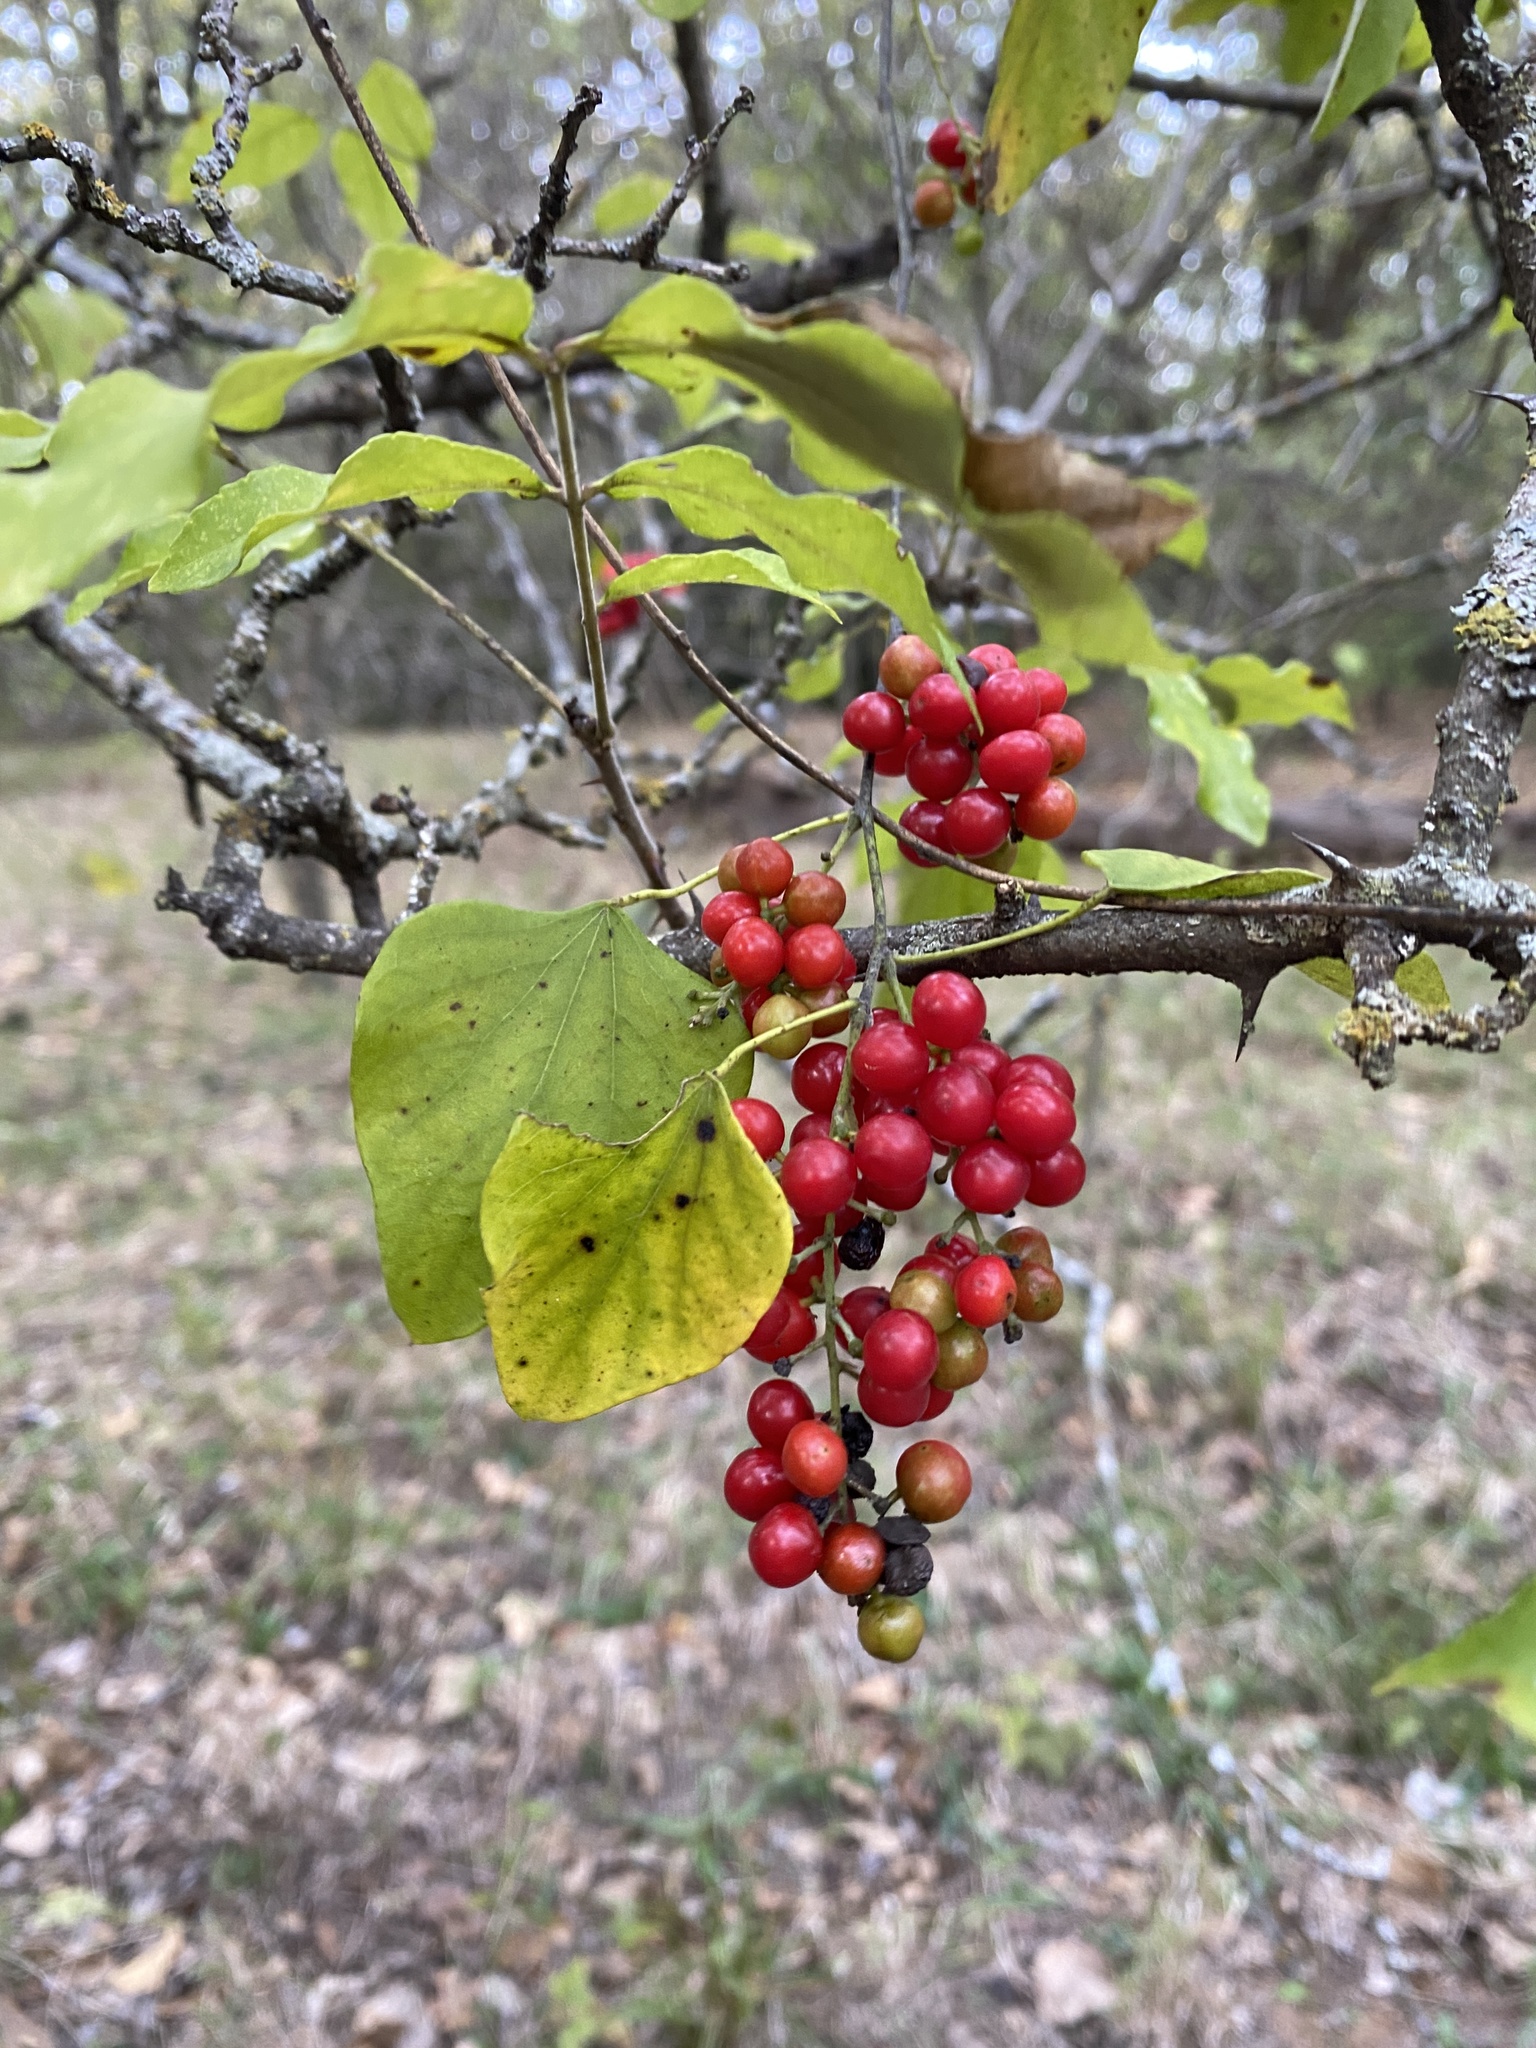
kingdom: Plantae
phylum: Tracheophyta
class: Magnoliopsida
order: Ranunculales
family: Menispermaceae
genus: Cocculus
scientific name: Cocculus carolinus
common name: Carolina moonseed
